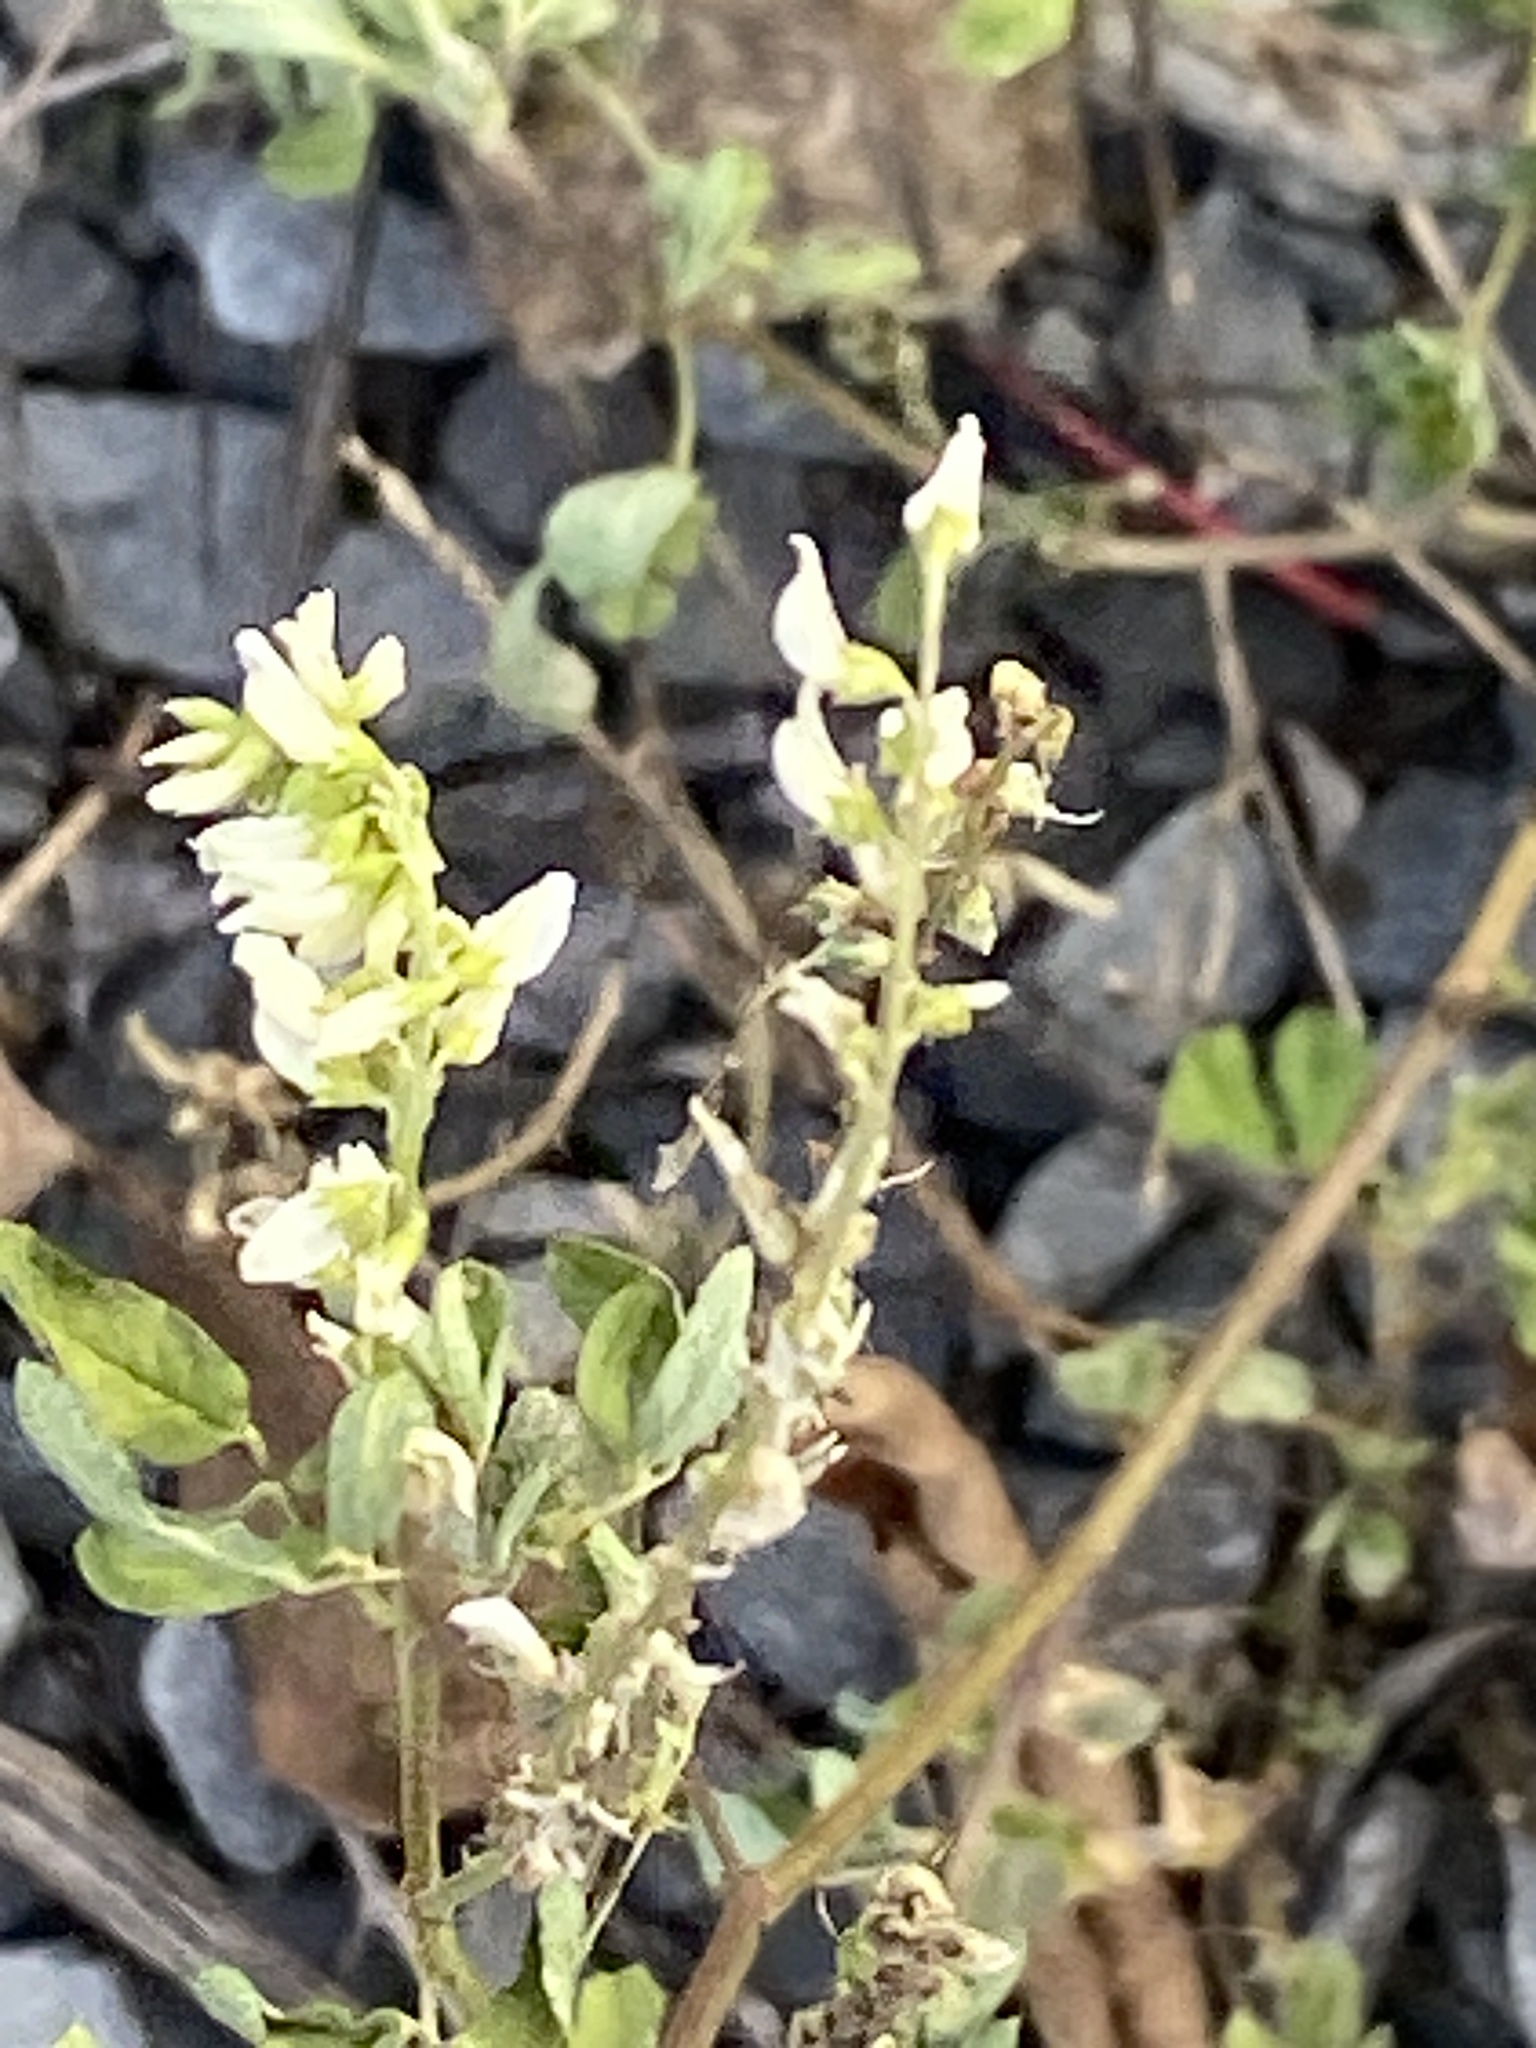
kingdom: Plantae
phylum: Tracheophyta
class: Magnoliopsida
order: Fabales
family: Fabaceae
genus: Melilotus
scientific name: Melilotus albus
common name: White melilot
